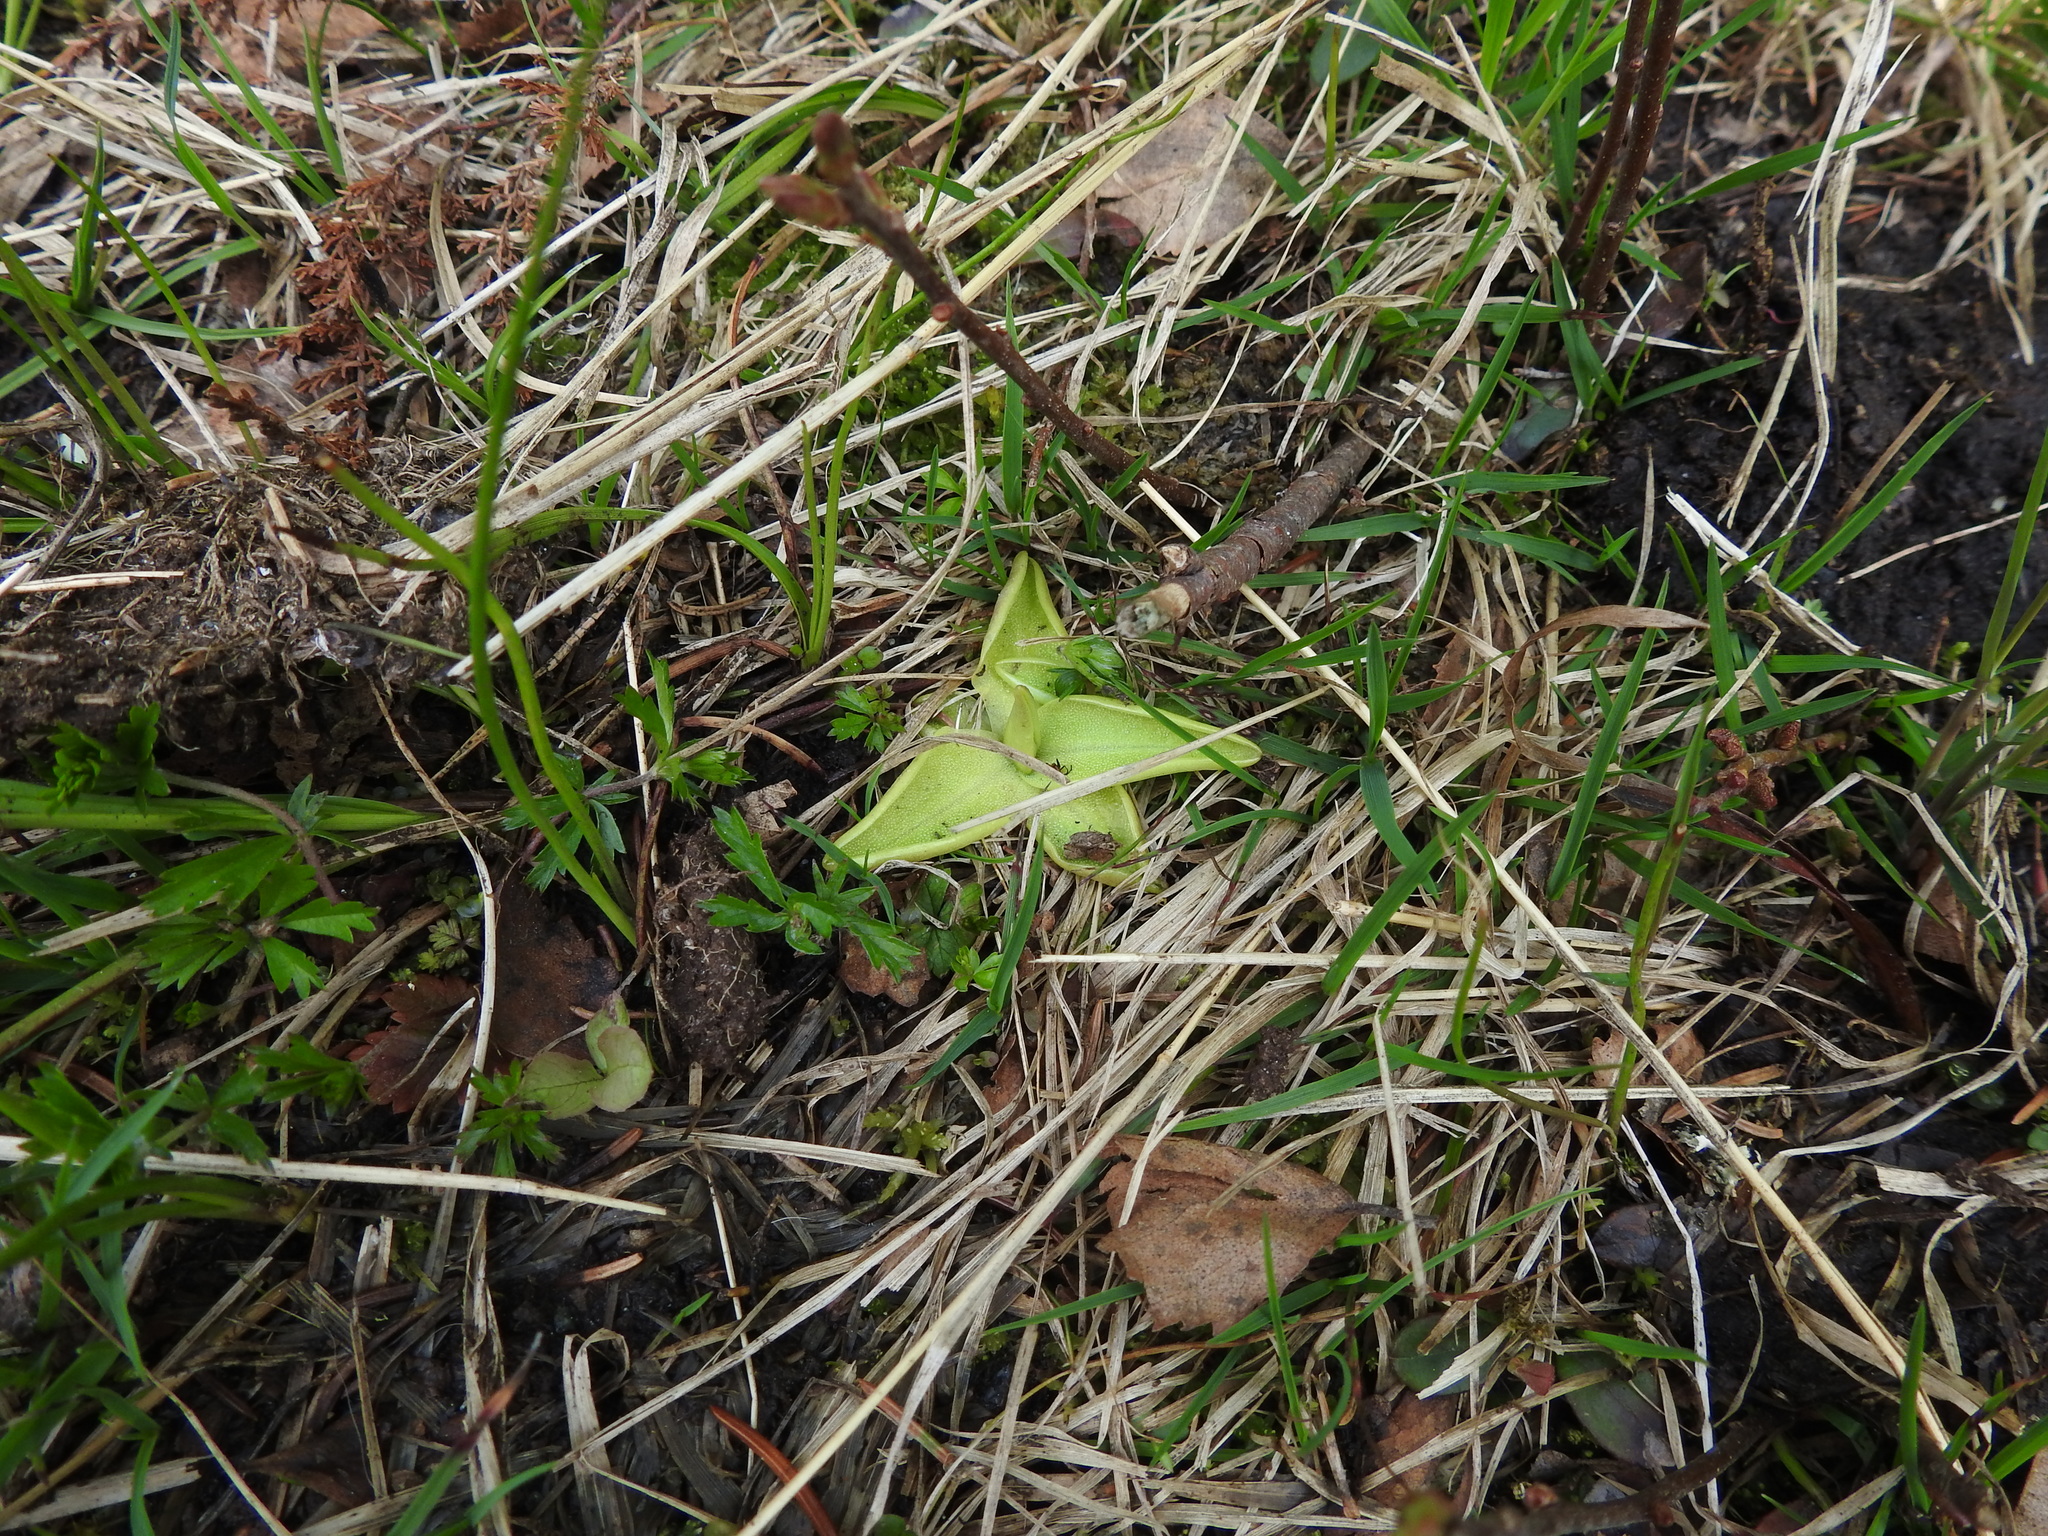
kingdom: Plantae
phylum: Tracheophyta
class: Magnoliopsida
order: Lamiales
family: Lentibulariaceae
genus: Pinguicula
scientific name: Pinguicula vulgaris
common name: Common butterwort
